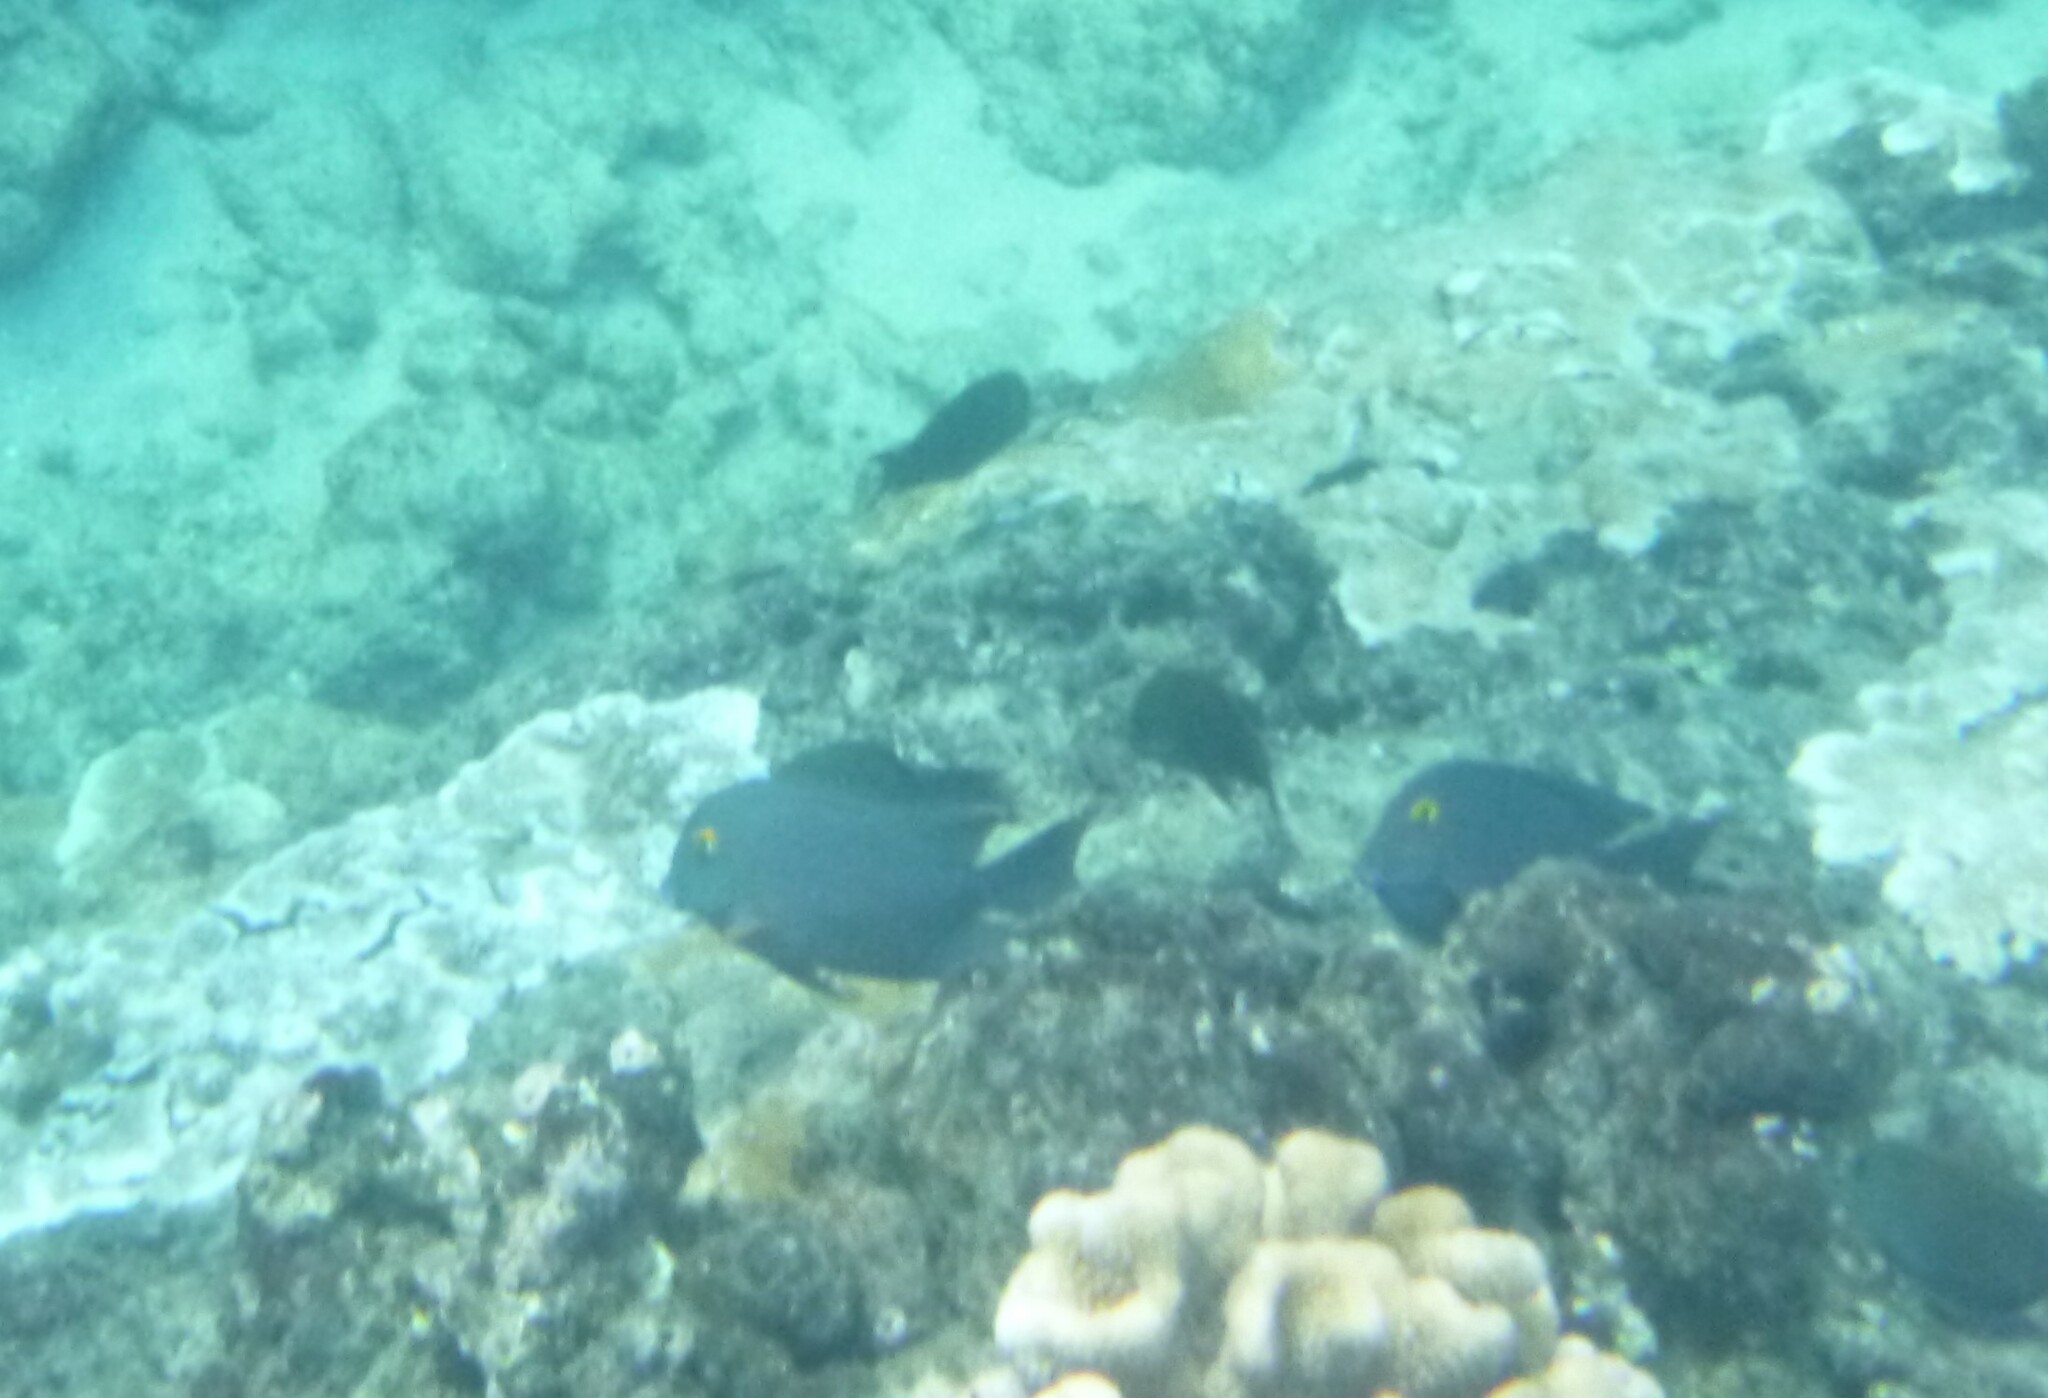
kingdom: Animalia
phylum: Chordata
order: Perciformes
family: Acanthuridae
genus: Ctenochaetus
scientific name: Ctenochaetus strigosus
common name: Bristletoothed surgeonfish
